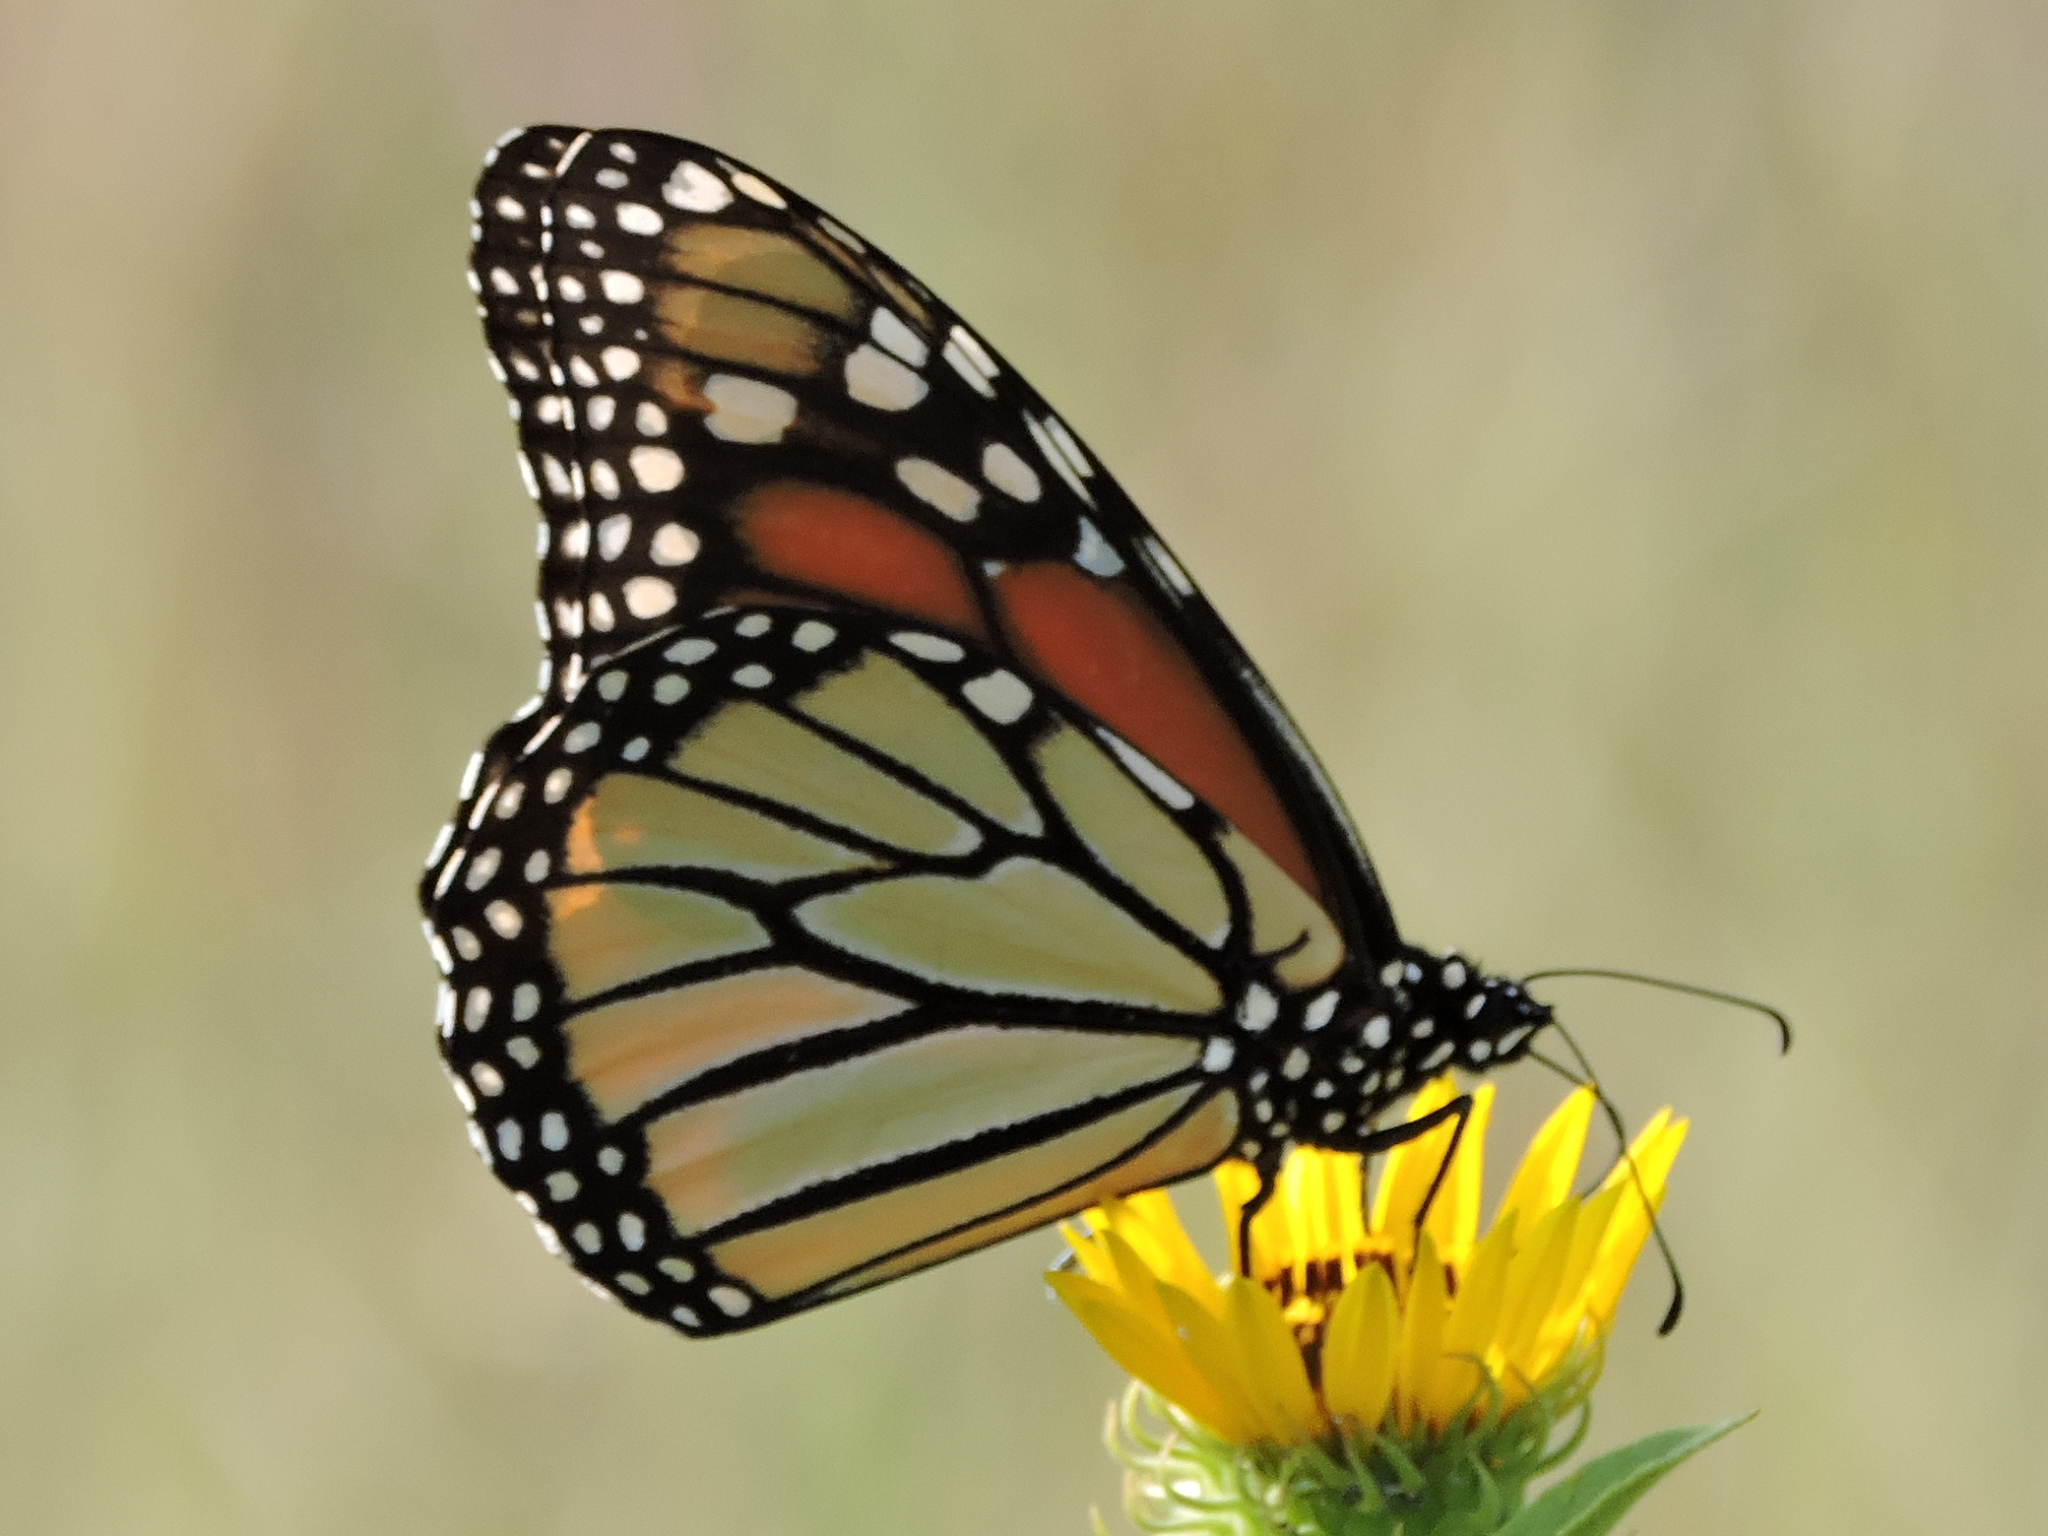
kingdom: Animalia
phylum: Arthropoda
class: Insecta
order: Lepidoptera
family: Nymphalidae
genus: Danaus
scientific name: Danaus plexippus
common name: Monarch
